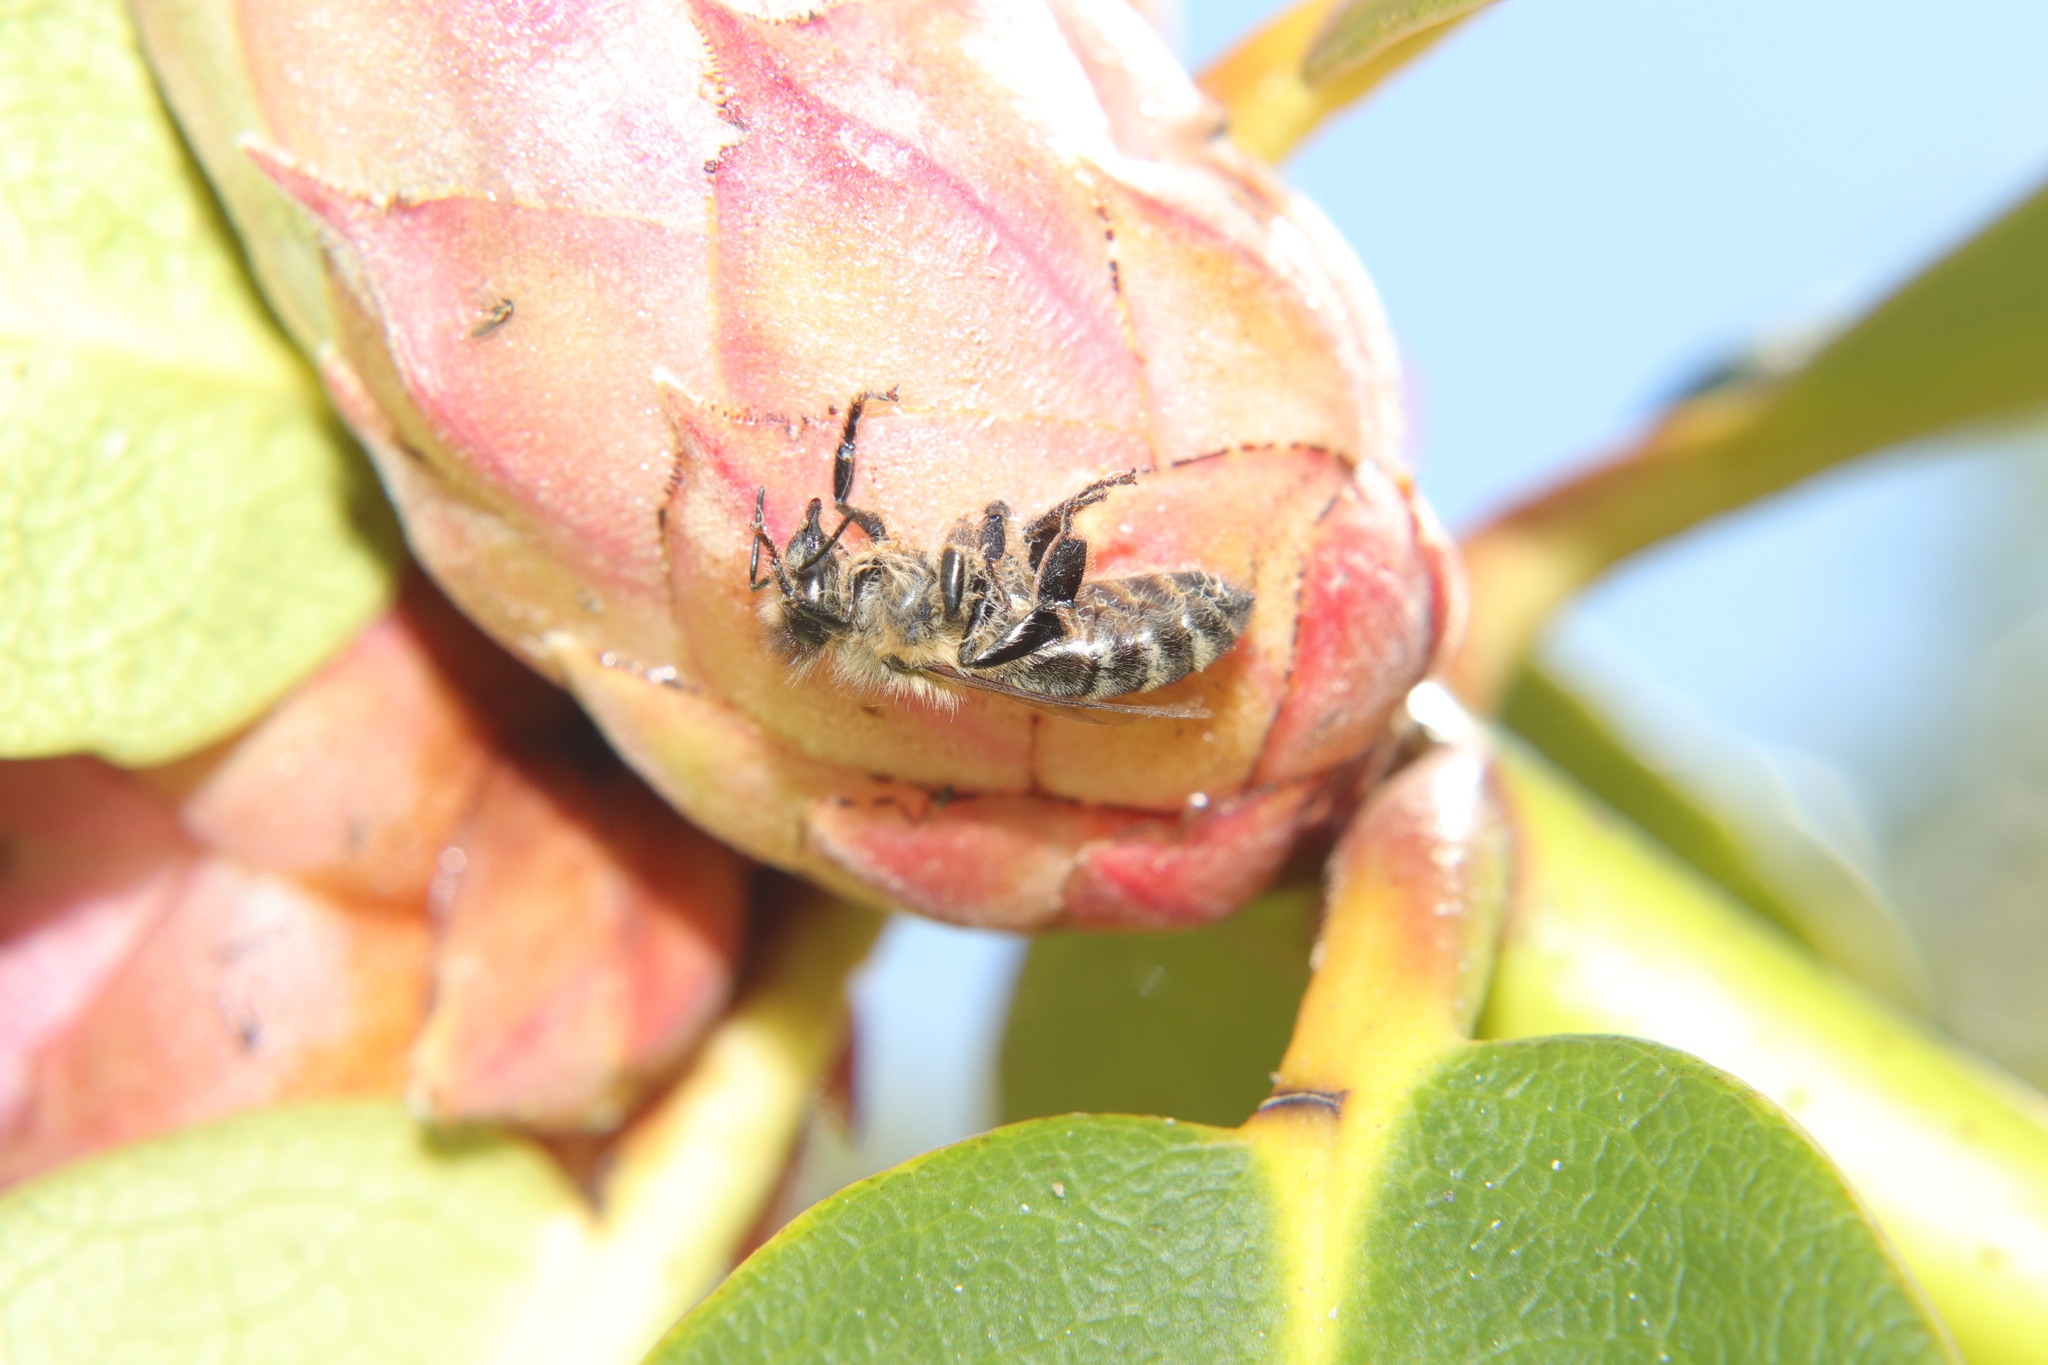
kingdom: Animalia
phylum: Arthropoda
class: Insecta
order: Hymenoptera
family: Apidae
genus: Apis
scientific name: Apis mellifera
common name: Honey bee
